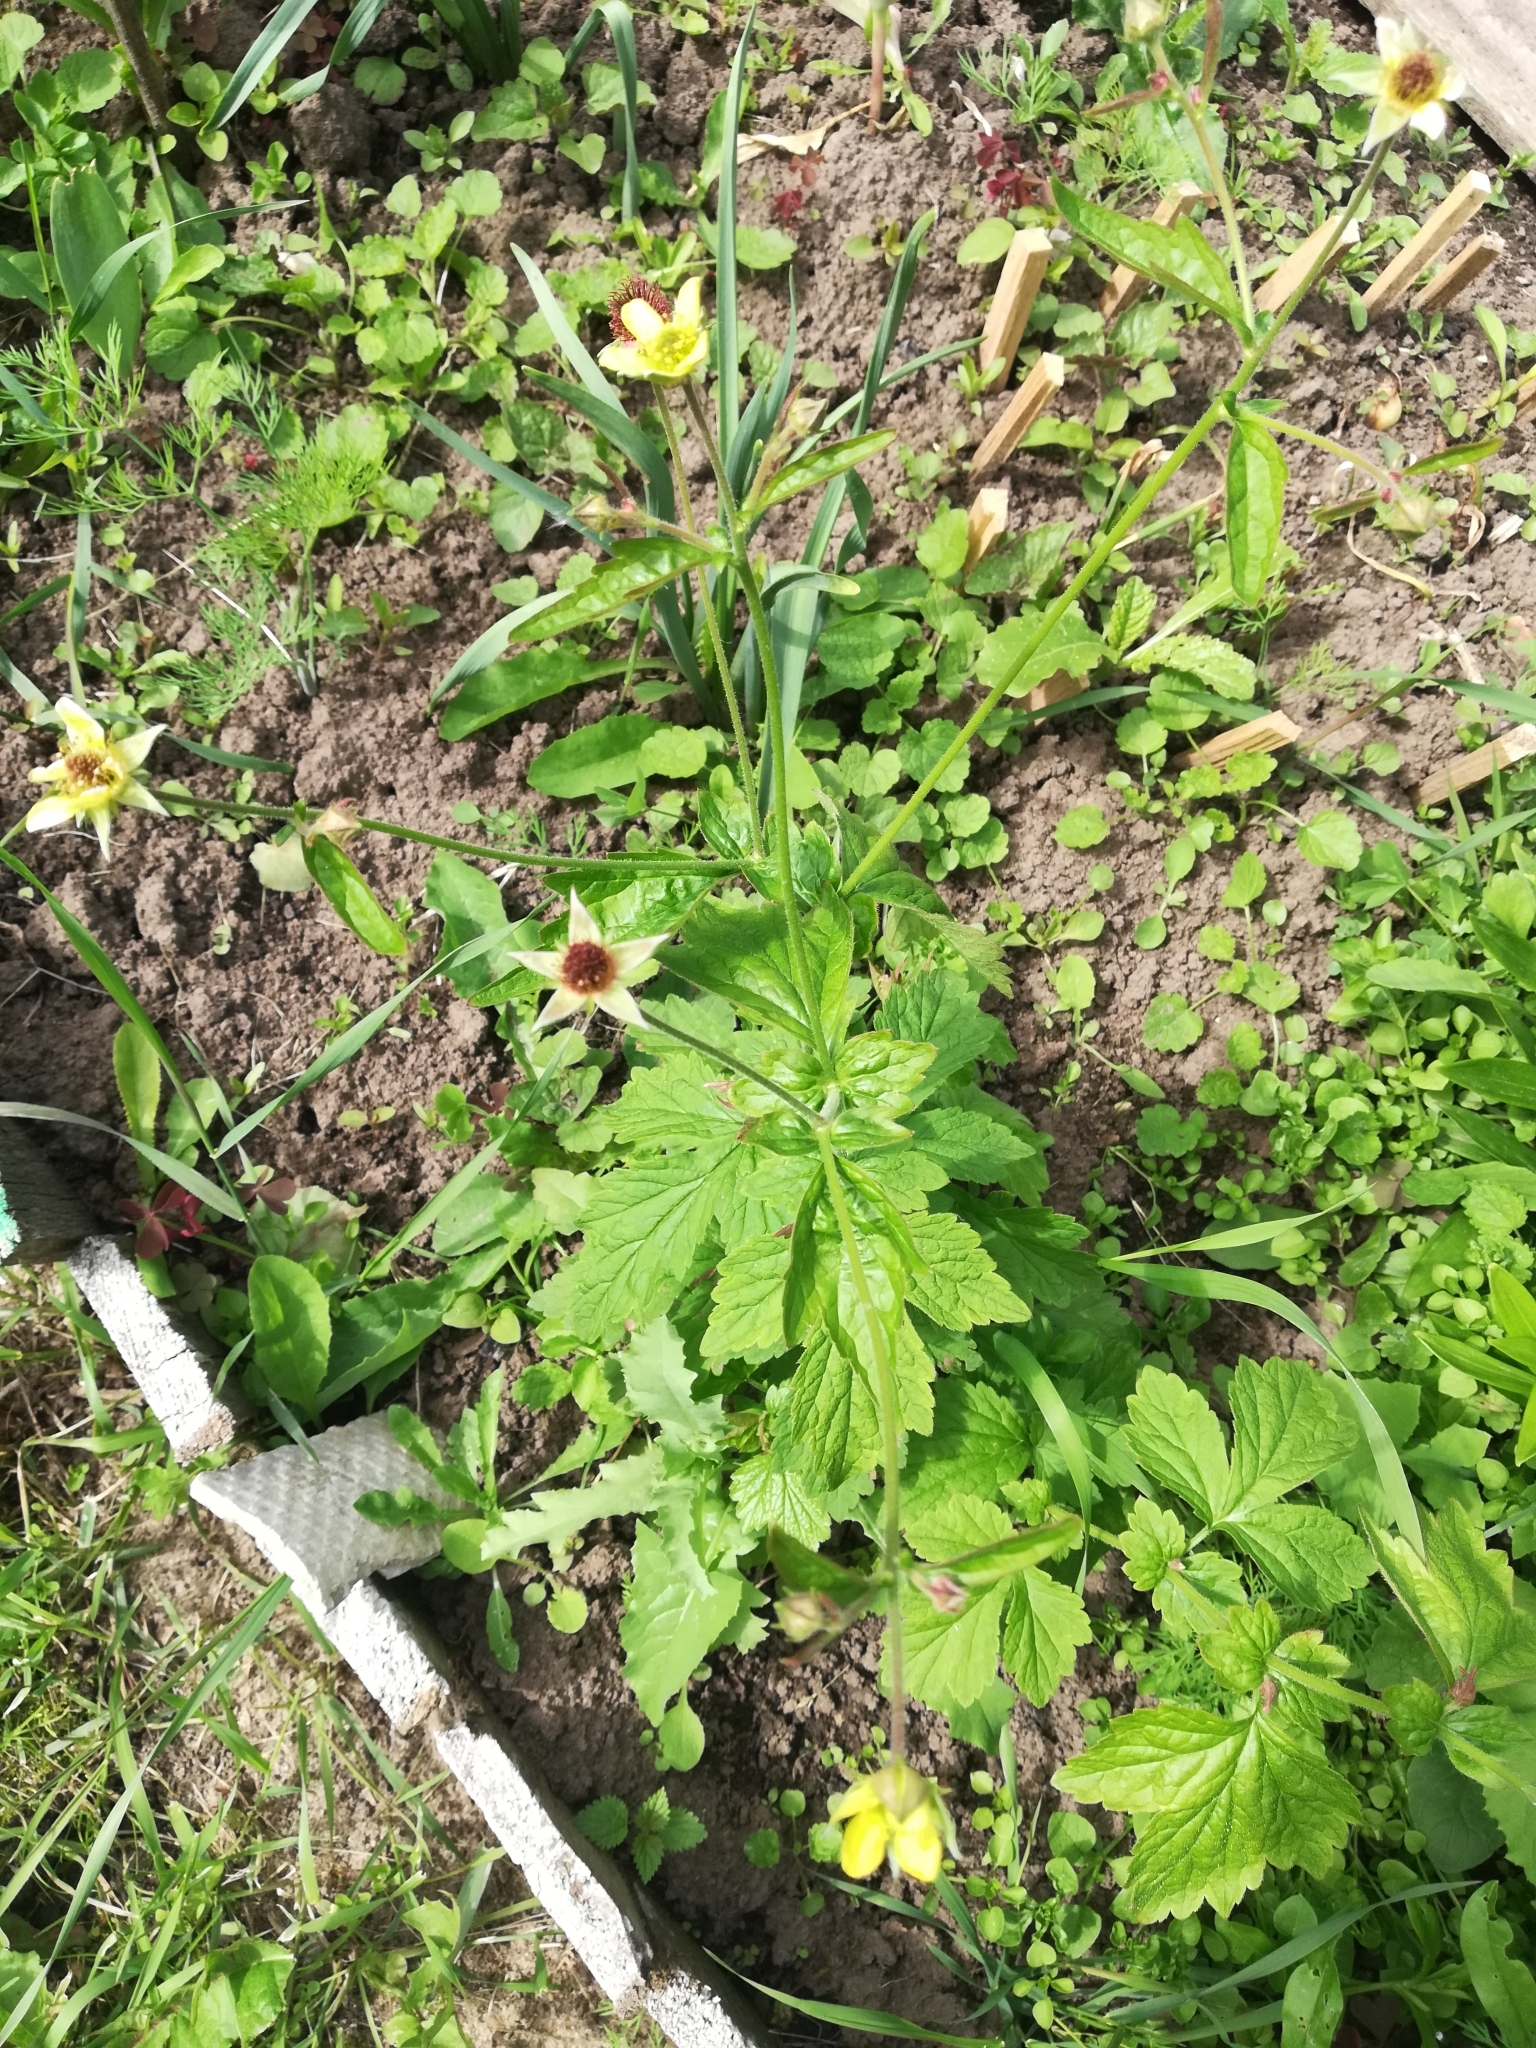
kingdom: Plantae
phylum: Tracheophyta
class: Magnoliopsida
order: Rosales
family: Rosaceae
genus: Geum
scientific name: Geum urbanum
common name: Wood avens
